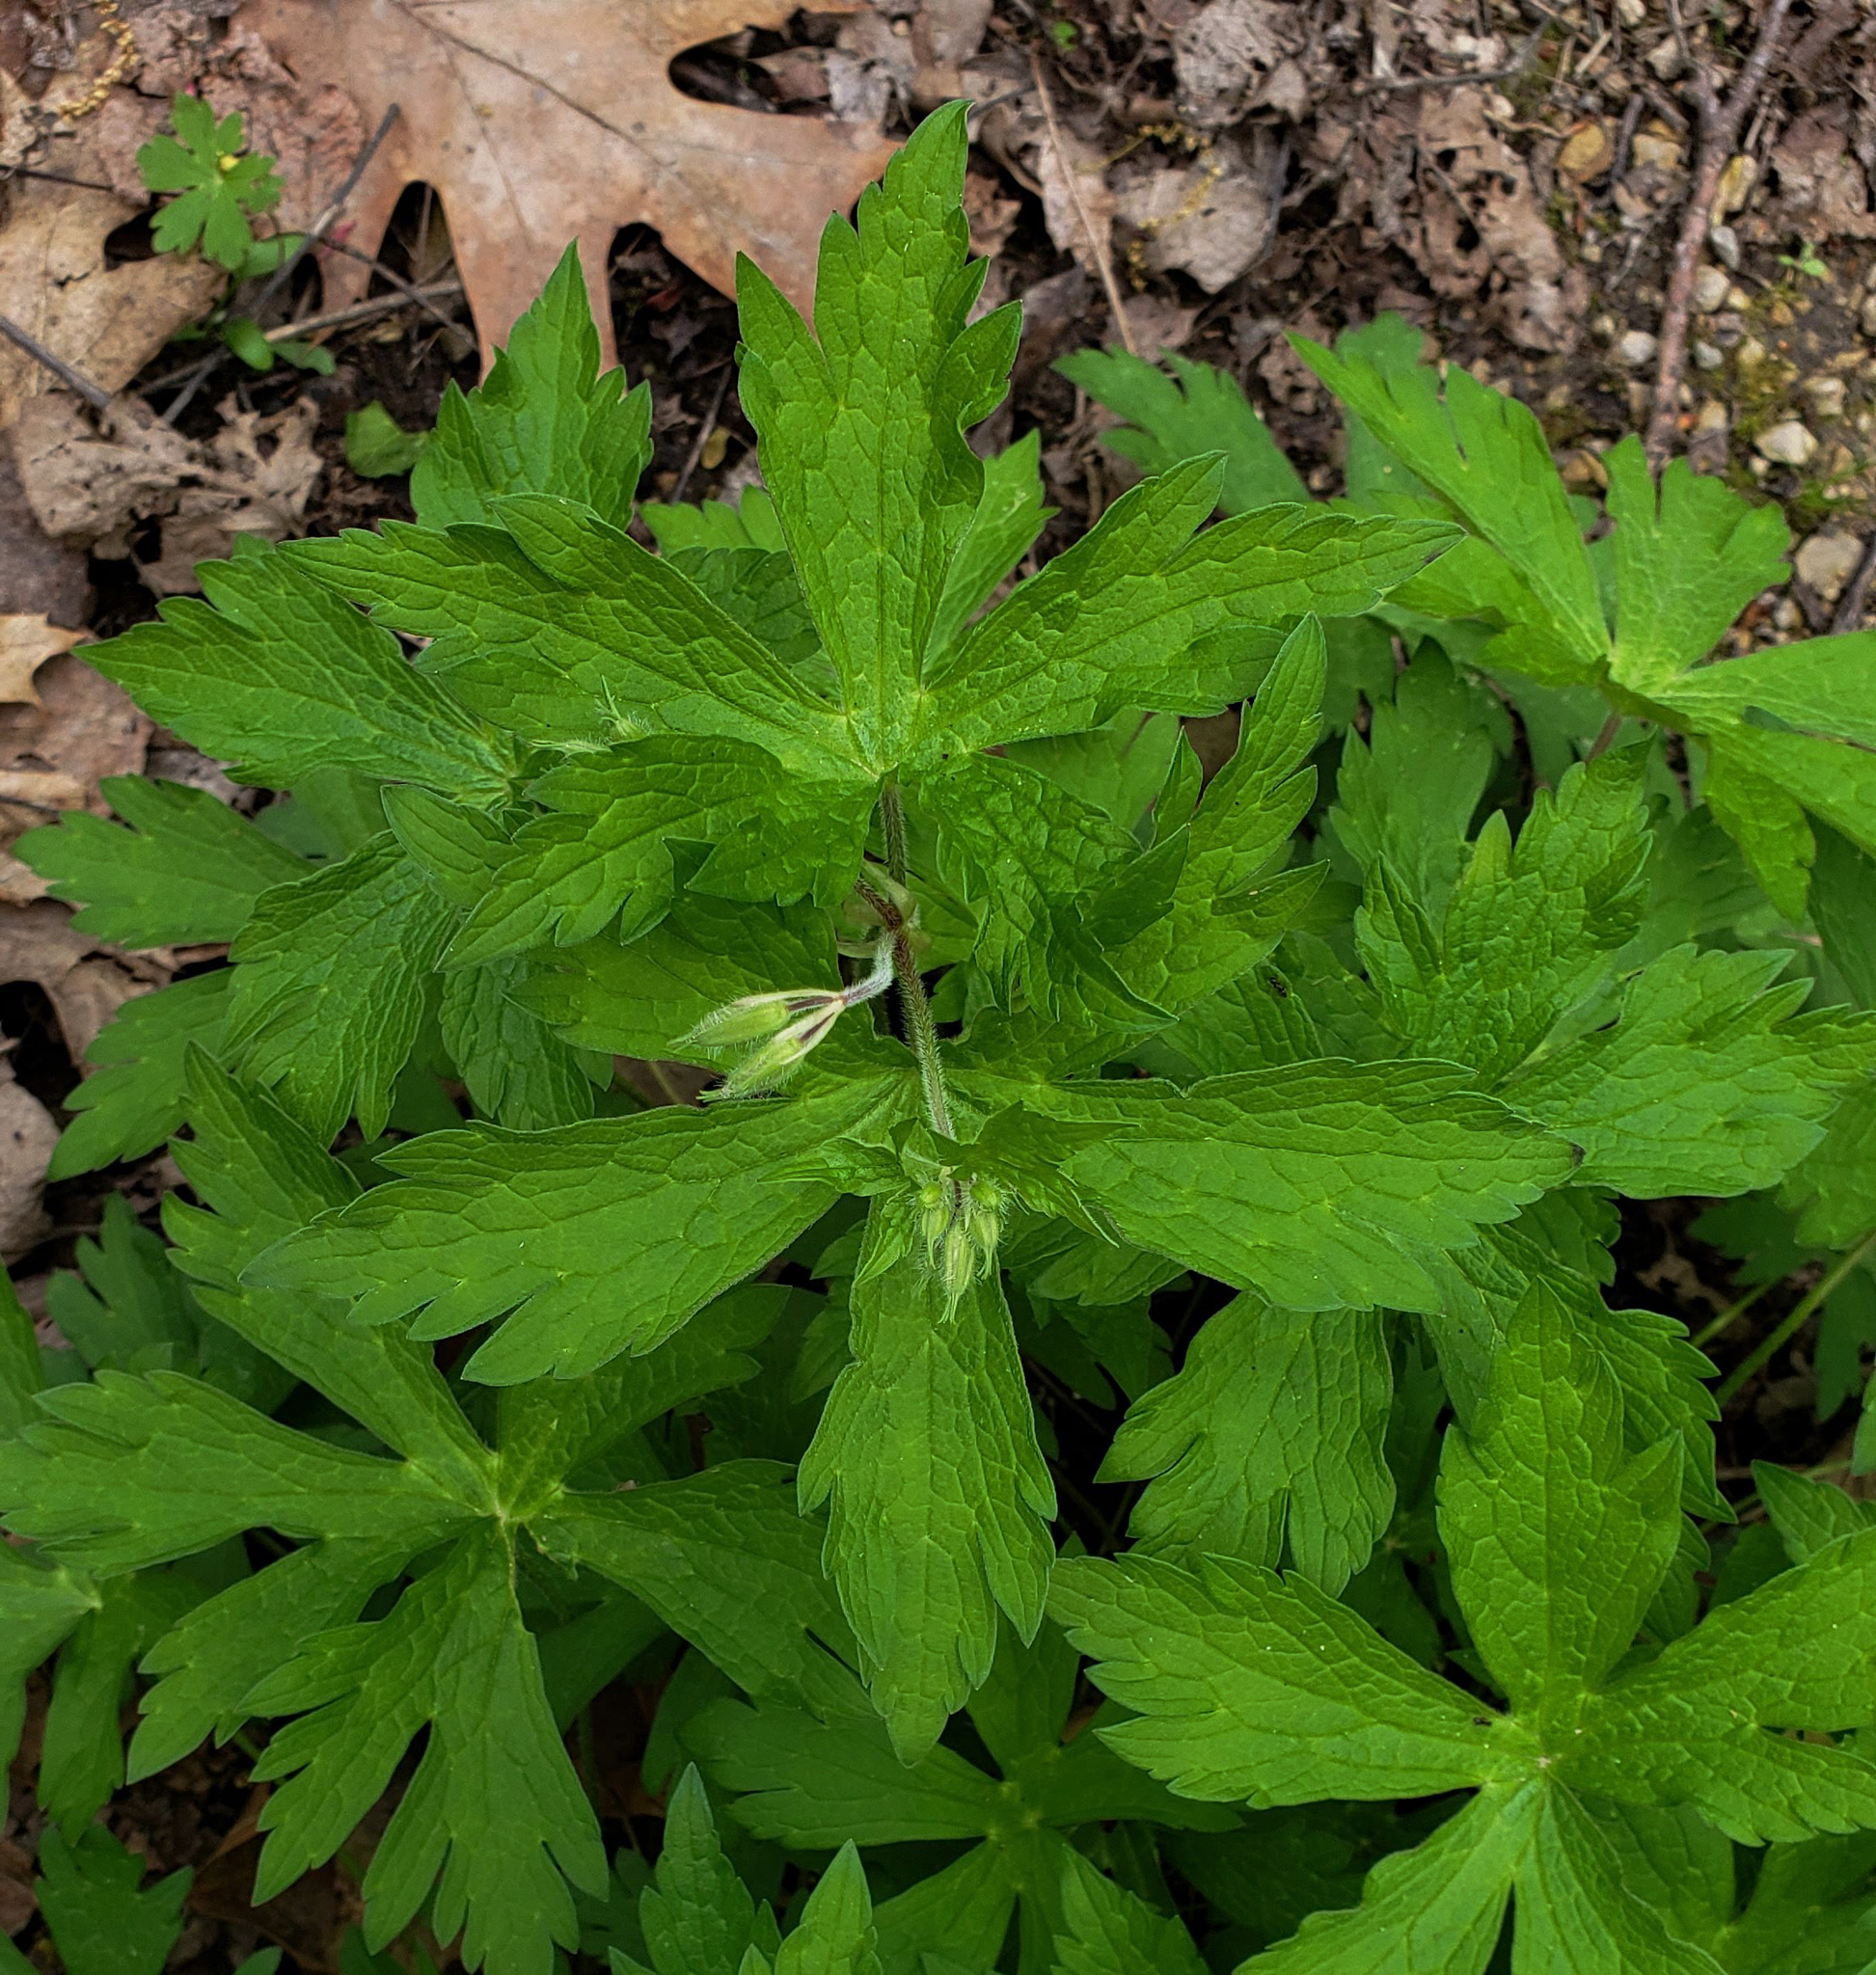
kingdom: Plantae
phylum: Tracheophyta
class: Magnoliopsida
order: Geraniales
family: Geraniaceae
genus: Geranium
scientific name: Geranium maculatum
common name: Spotted geranium
